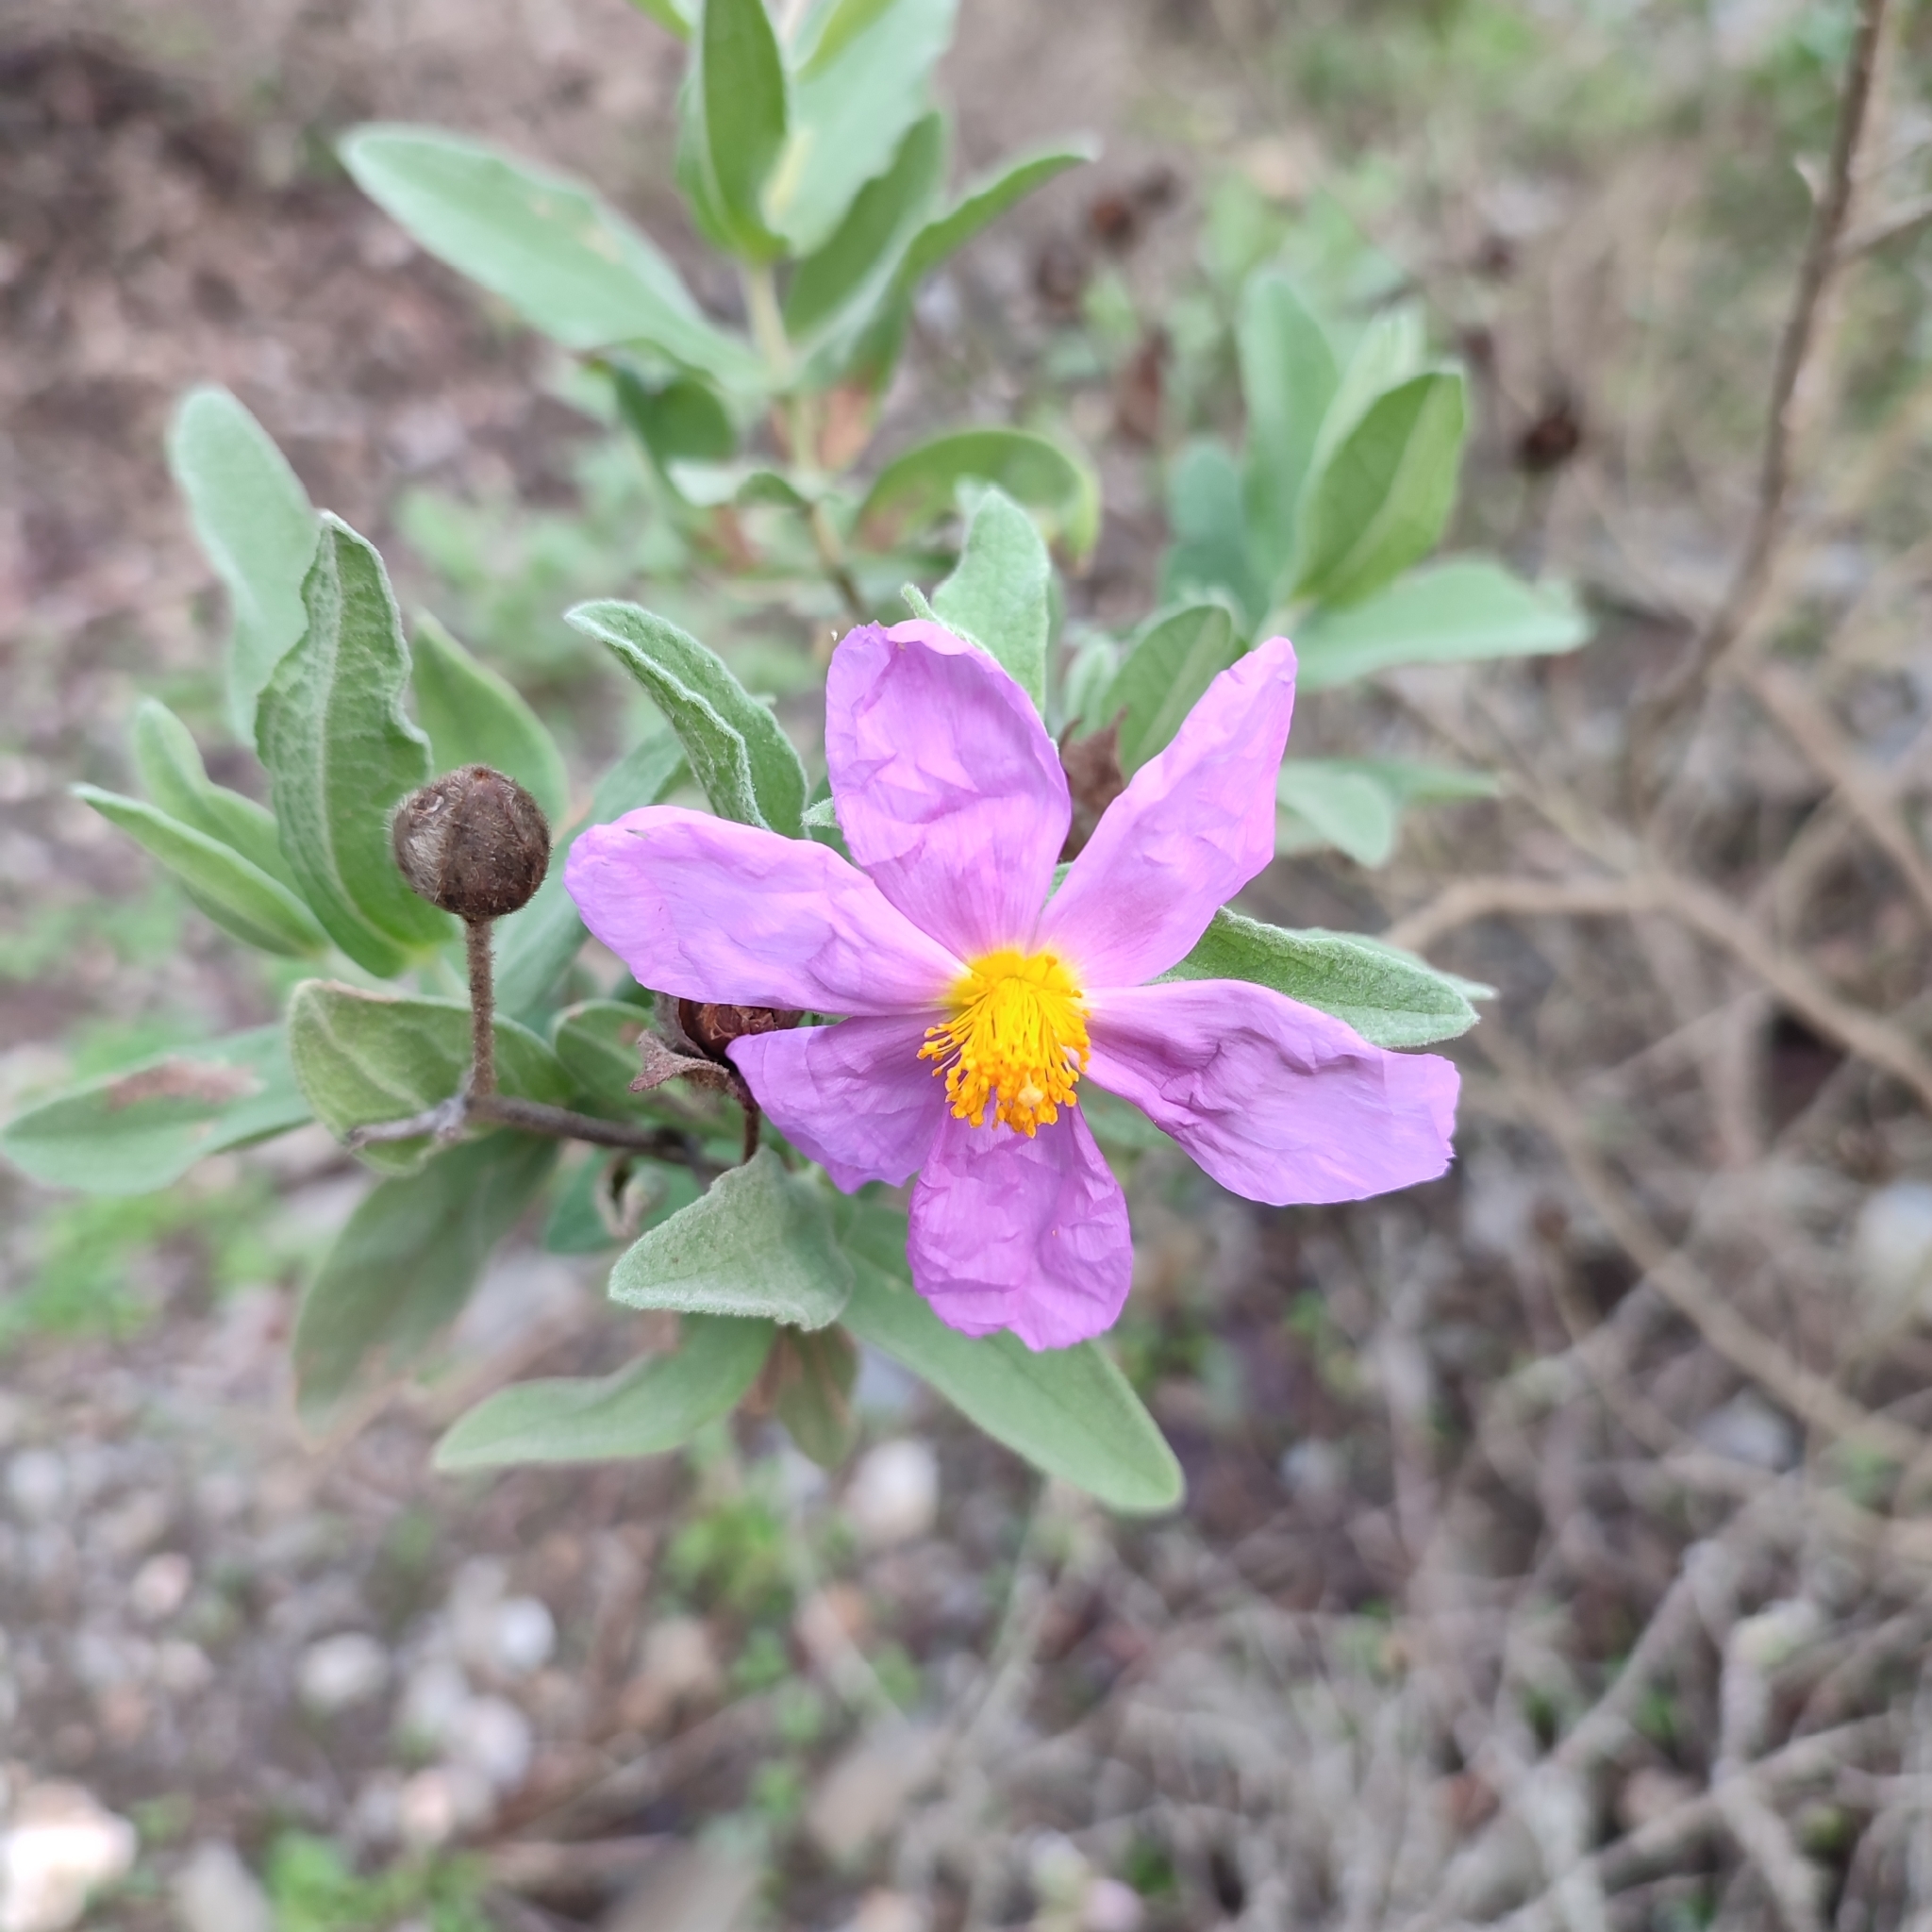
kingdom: Plantae
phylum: Tracheophyta
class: Magnoliopsida
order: Malvales
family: Cistaceae
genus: Cistus
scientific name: Cistus albidus
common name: White-leaf rock-rose
